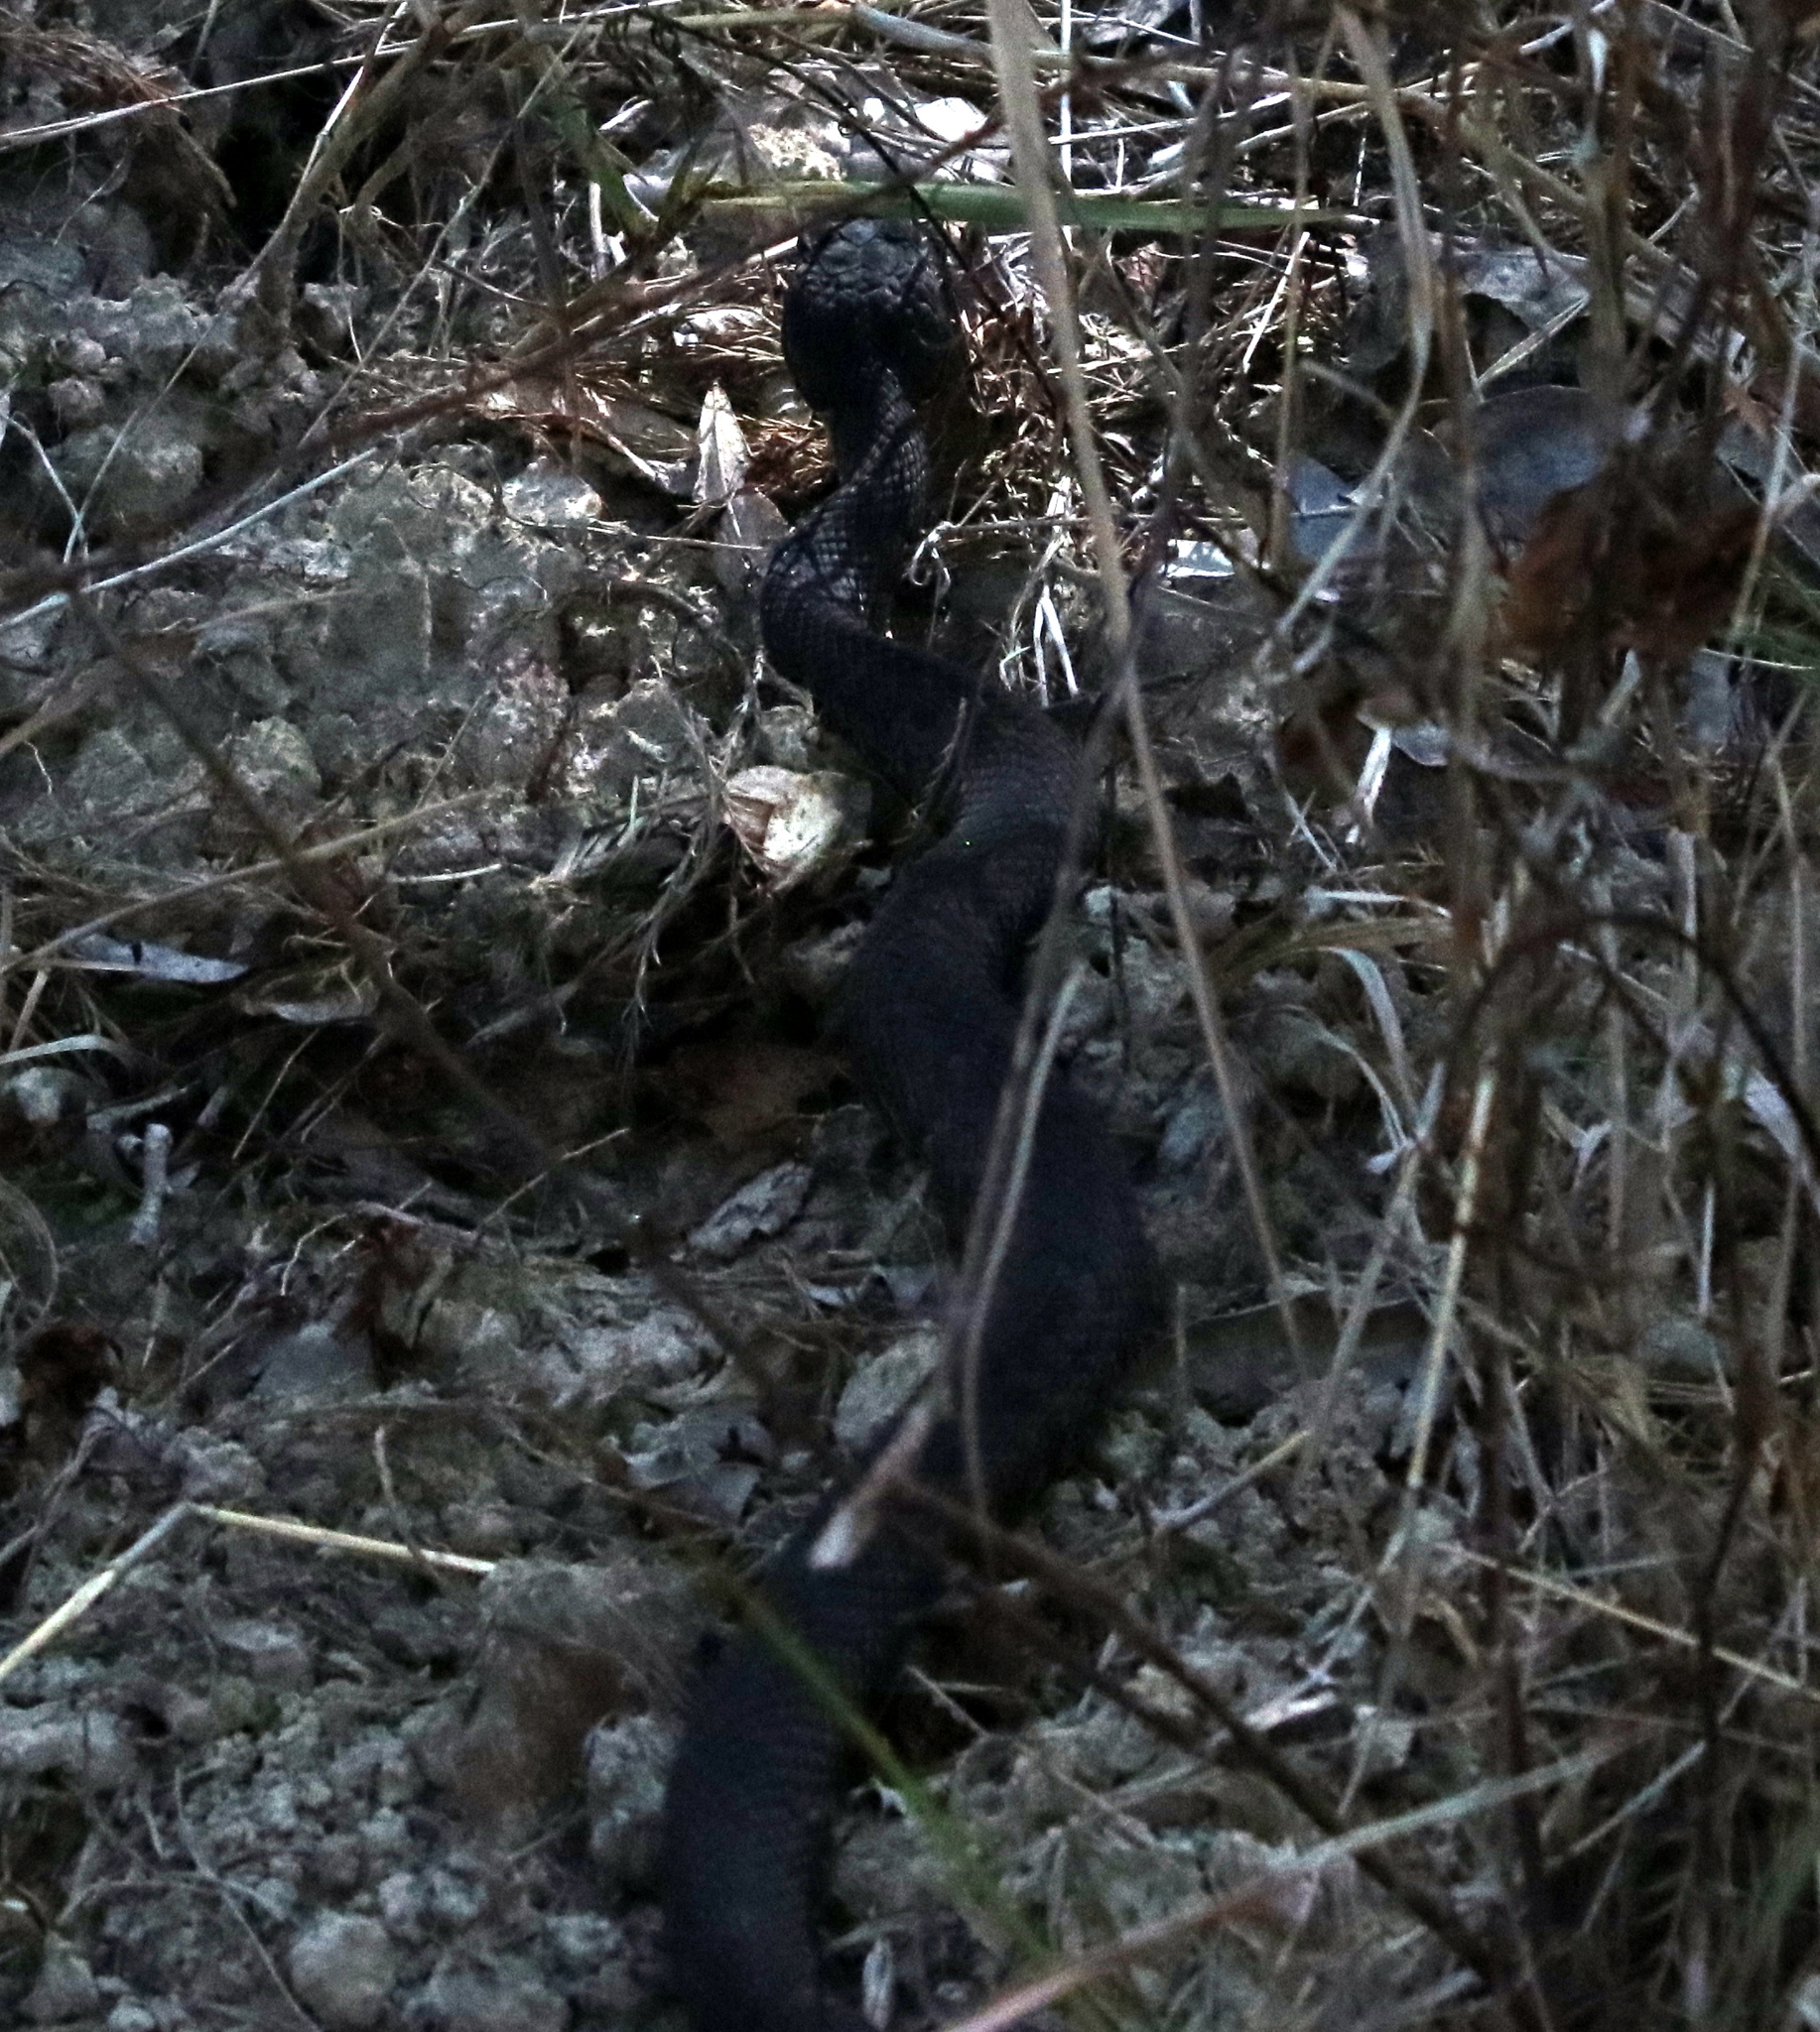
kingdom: Animalia
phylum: Chordata
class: Squamata
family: Viperidae
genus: Agkistrodon
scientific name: Agkistrodon piscivorus
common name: Cottonmouth
